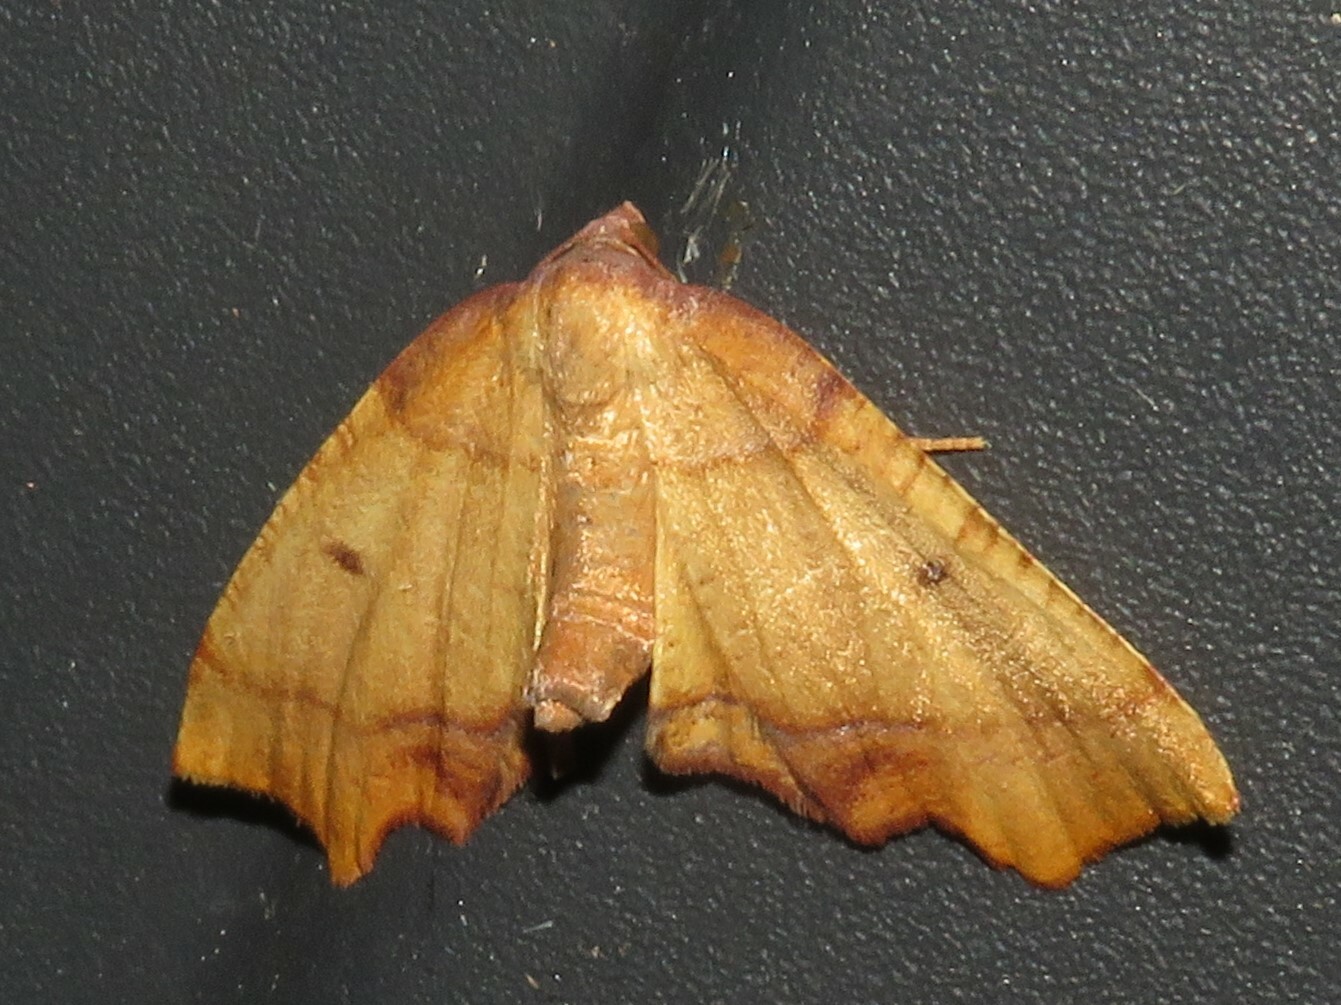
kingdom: Animalia
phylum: Arthropoda
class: Insecta
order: Lepidoptera
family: Geometridae
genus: Plagodis
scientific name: Plagodis phlogosaria
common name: Straight-lined plagodis
